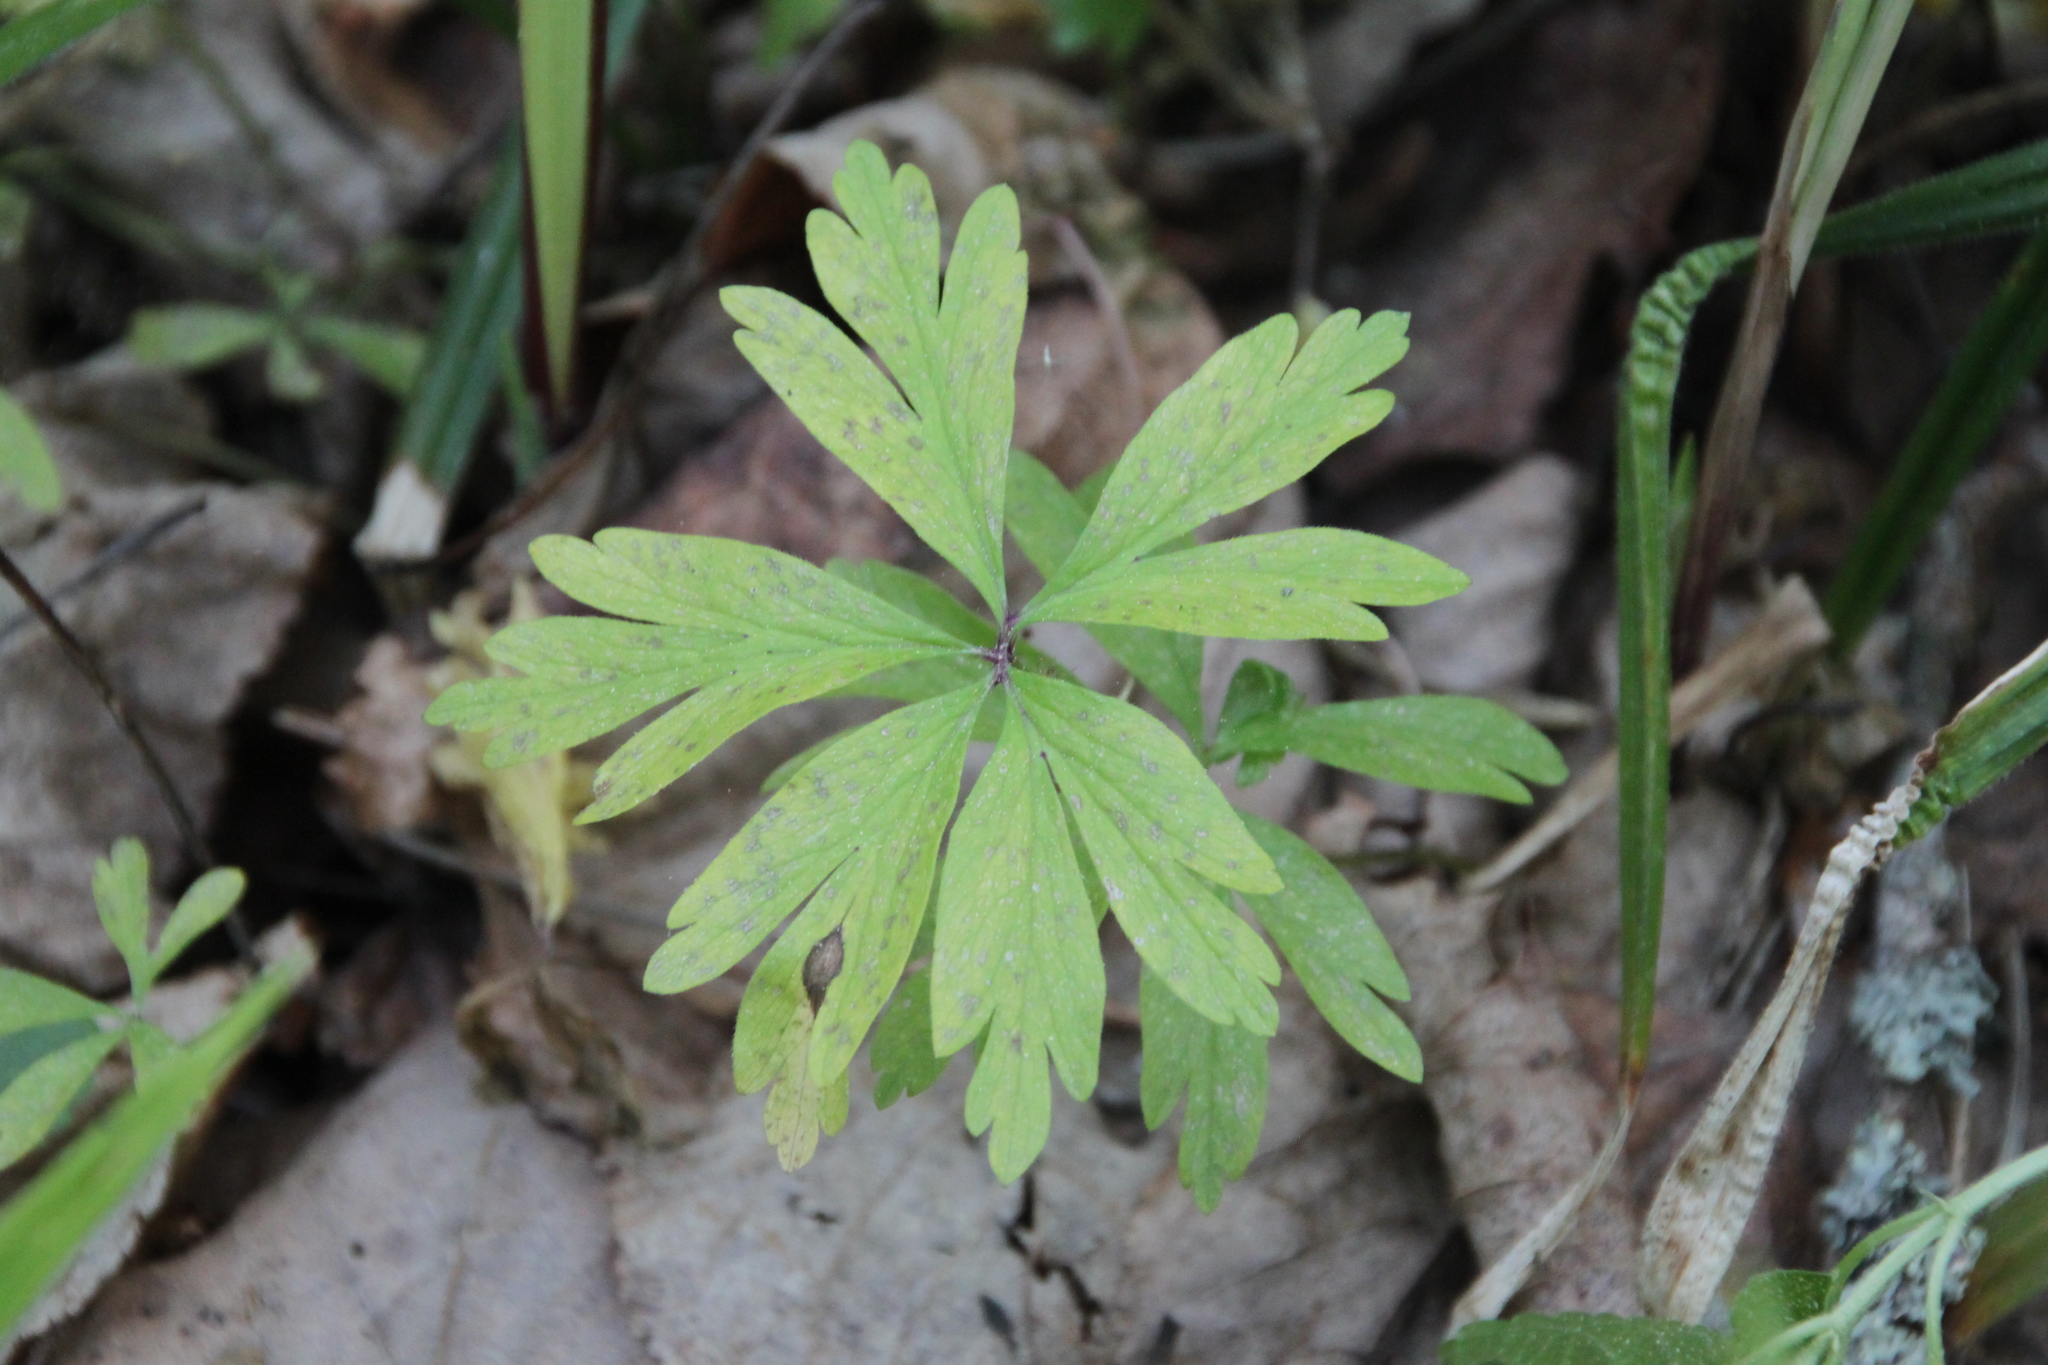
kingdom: Plantae
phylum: Tracheophyta
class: Magnoliopsida
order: Ranunculales
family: Ranunculaceae
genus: Anemone
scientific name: Anemone ranunculoides
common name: Yellow anemone
